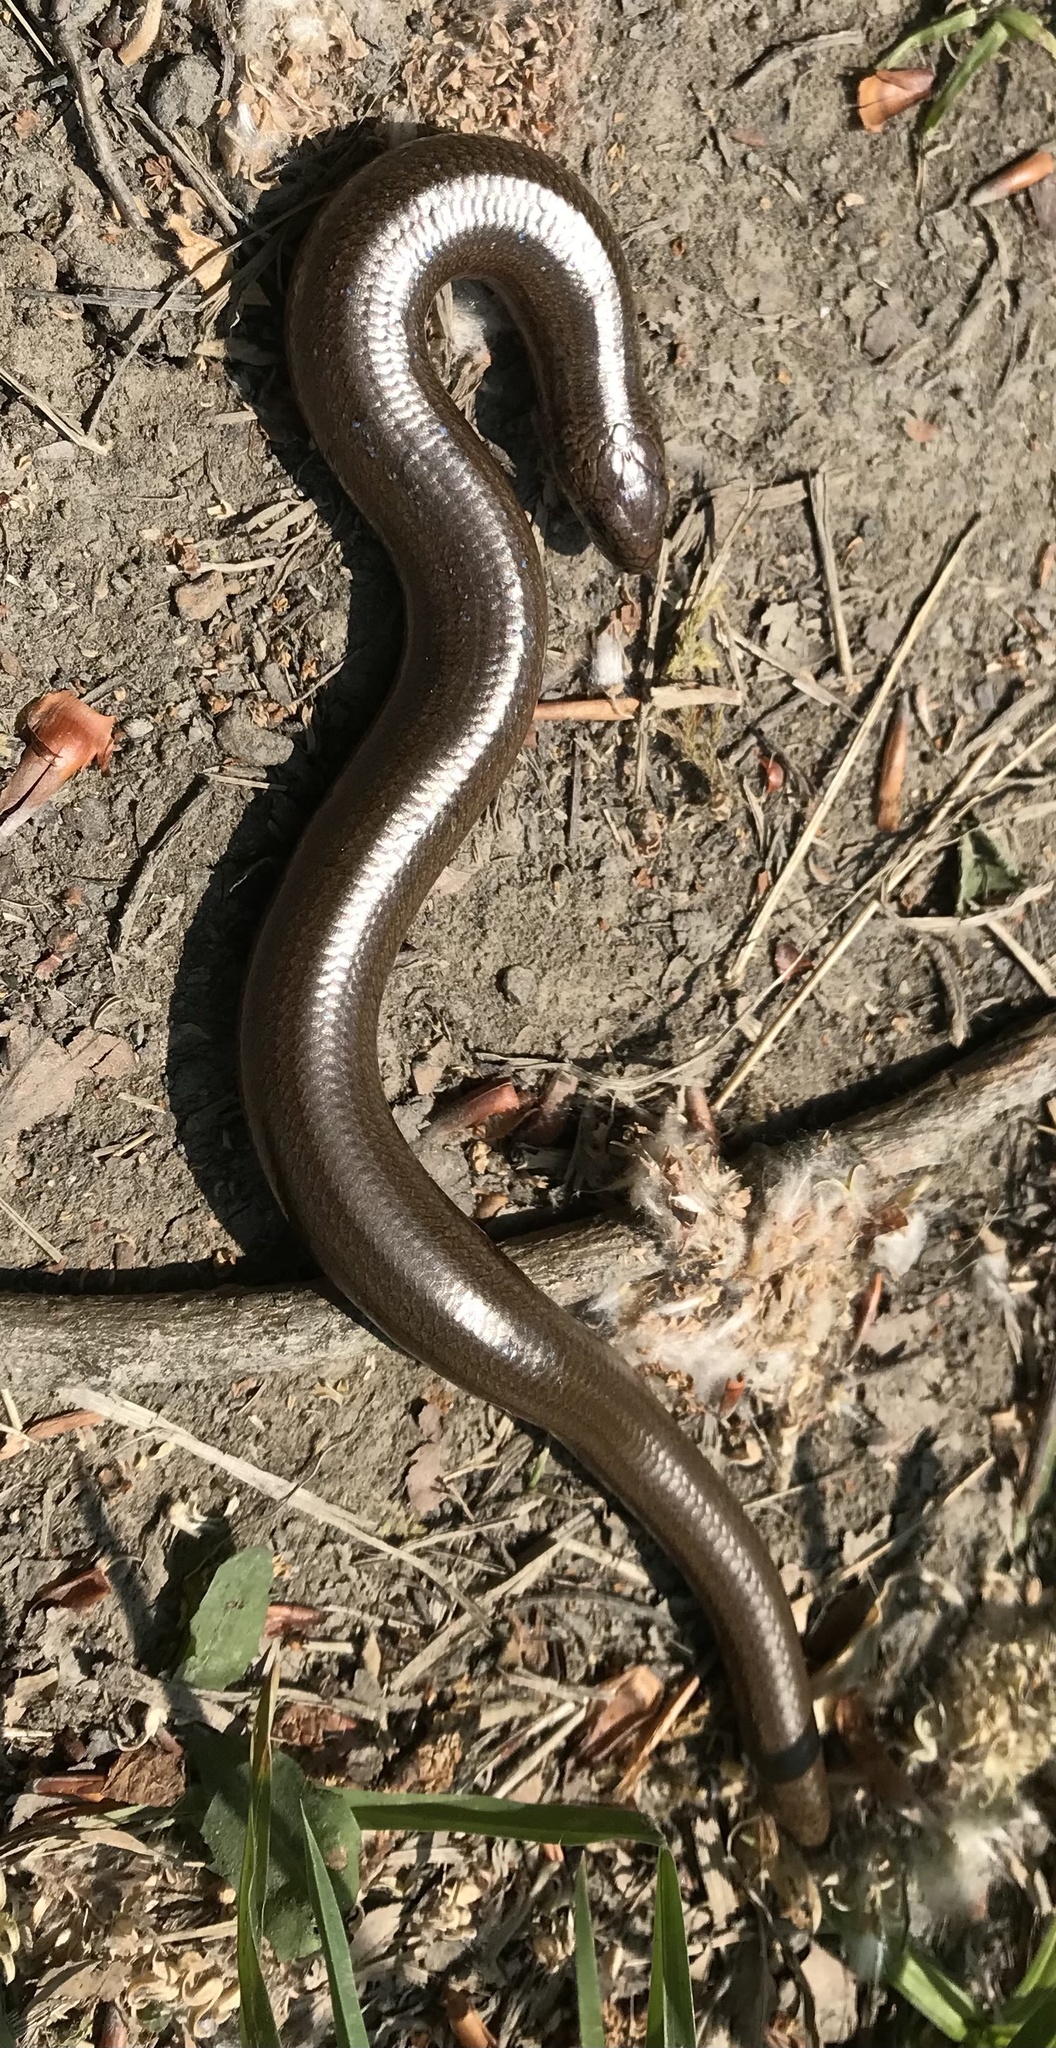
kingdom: Animalia
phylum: Chordata
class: Squamata
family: Anguidae
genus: Anguis
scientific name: Anguis fragilis
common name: Slow worm
